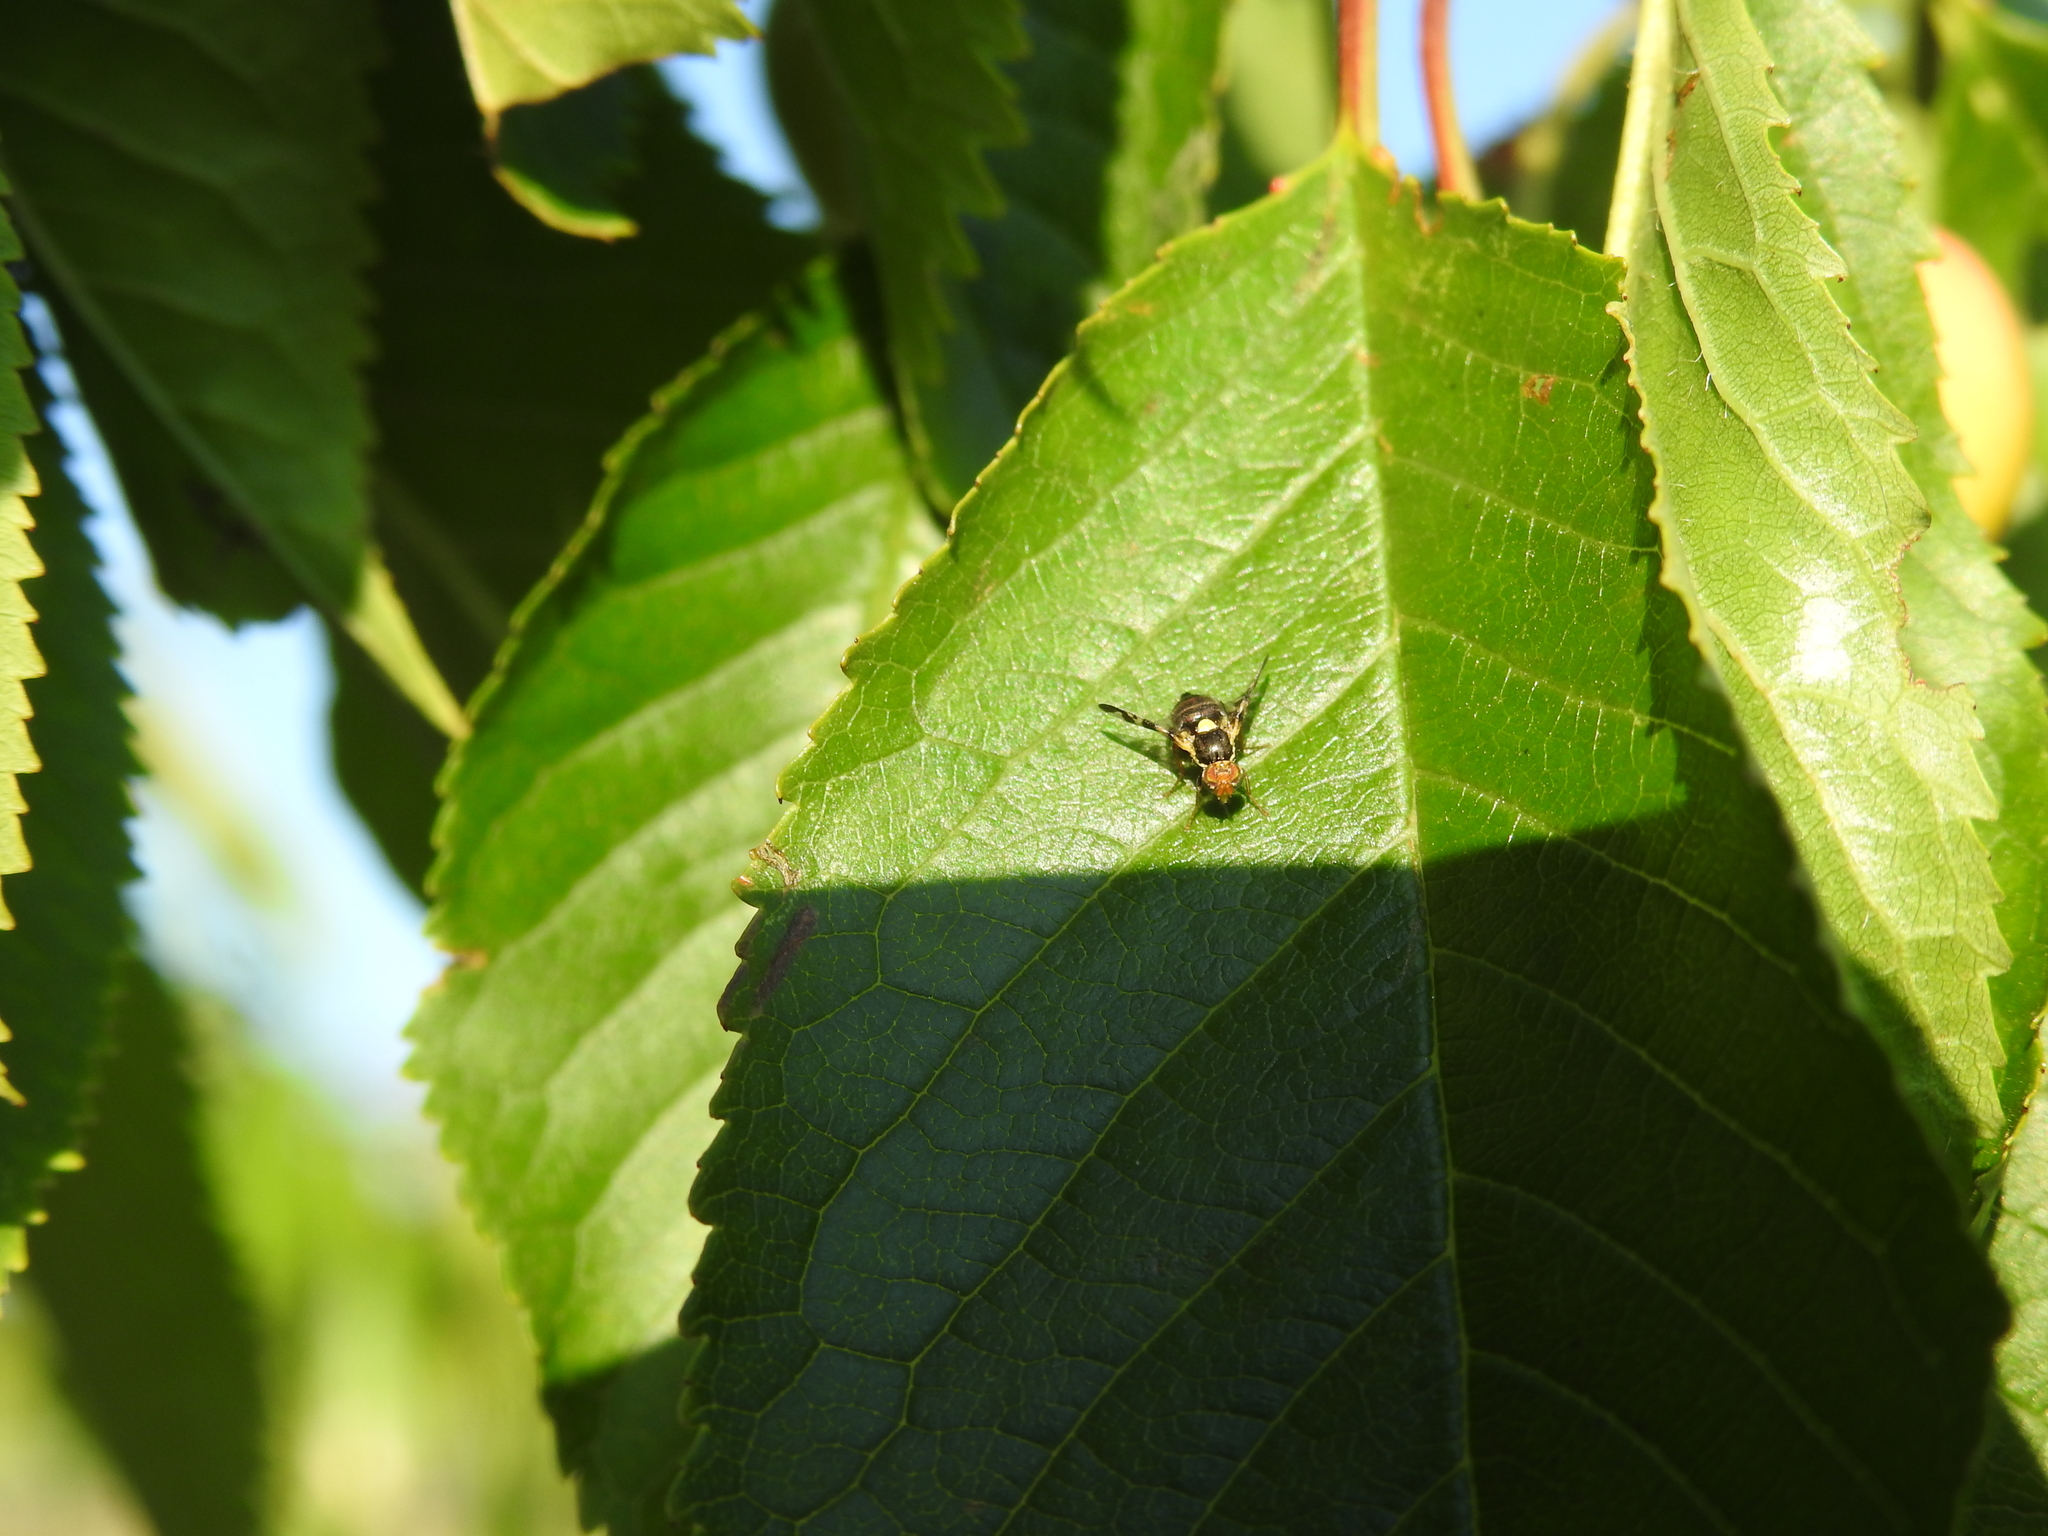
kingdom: Animalia
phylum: Arthropoda
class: Insecta
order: Diptera
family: Tephritidae
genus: Rhagoletis
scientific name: Rhagoletis cerasi
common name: European cherry fruit fly
